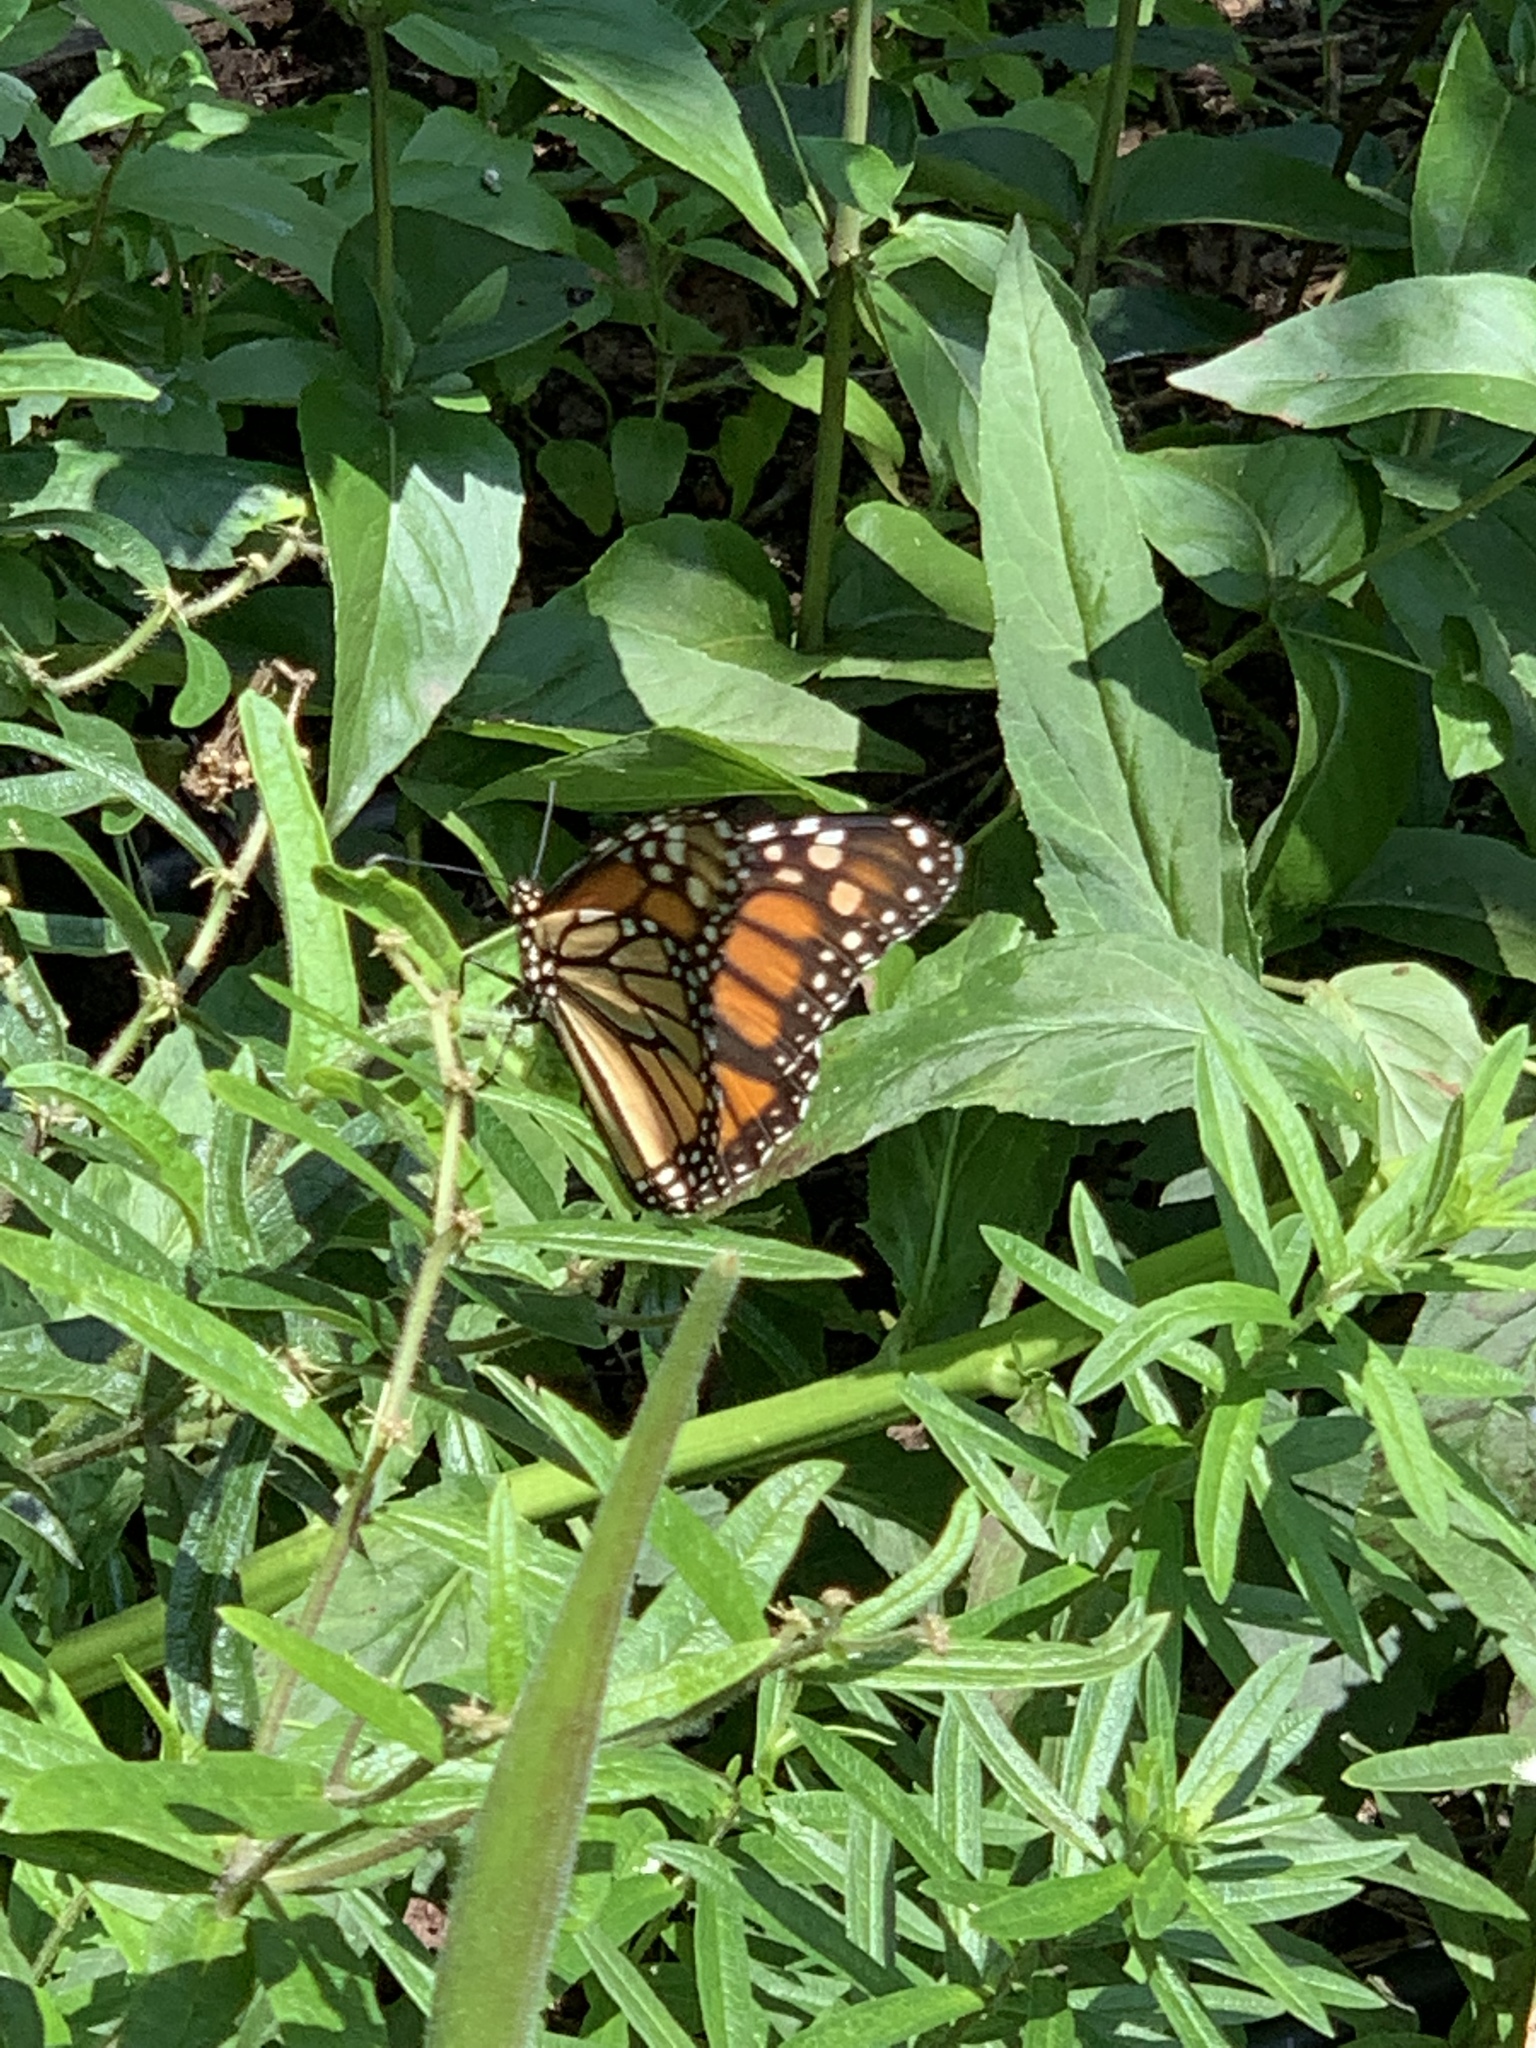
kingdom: Animalia
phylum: Arthropoda
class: Insecta
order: Lepidoptera
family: Nymphalidae
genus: Danaus
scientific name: Danaus plexippus
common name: Monarch
